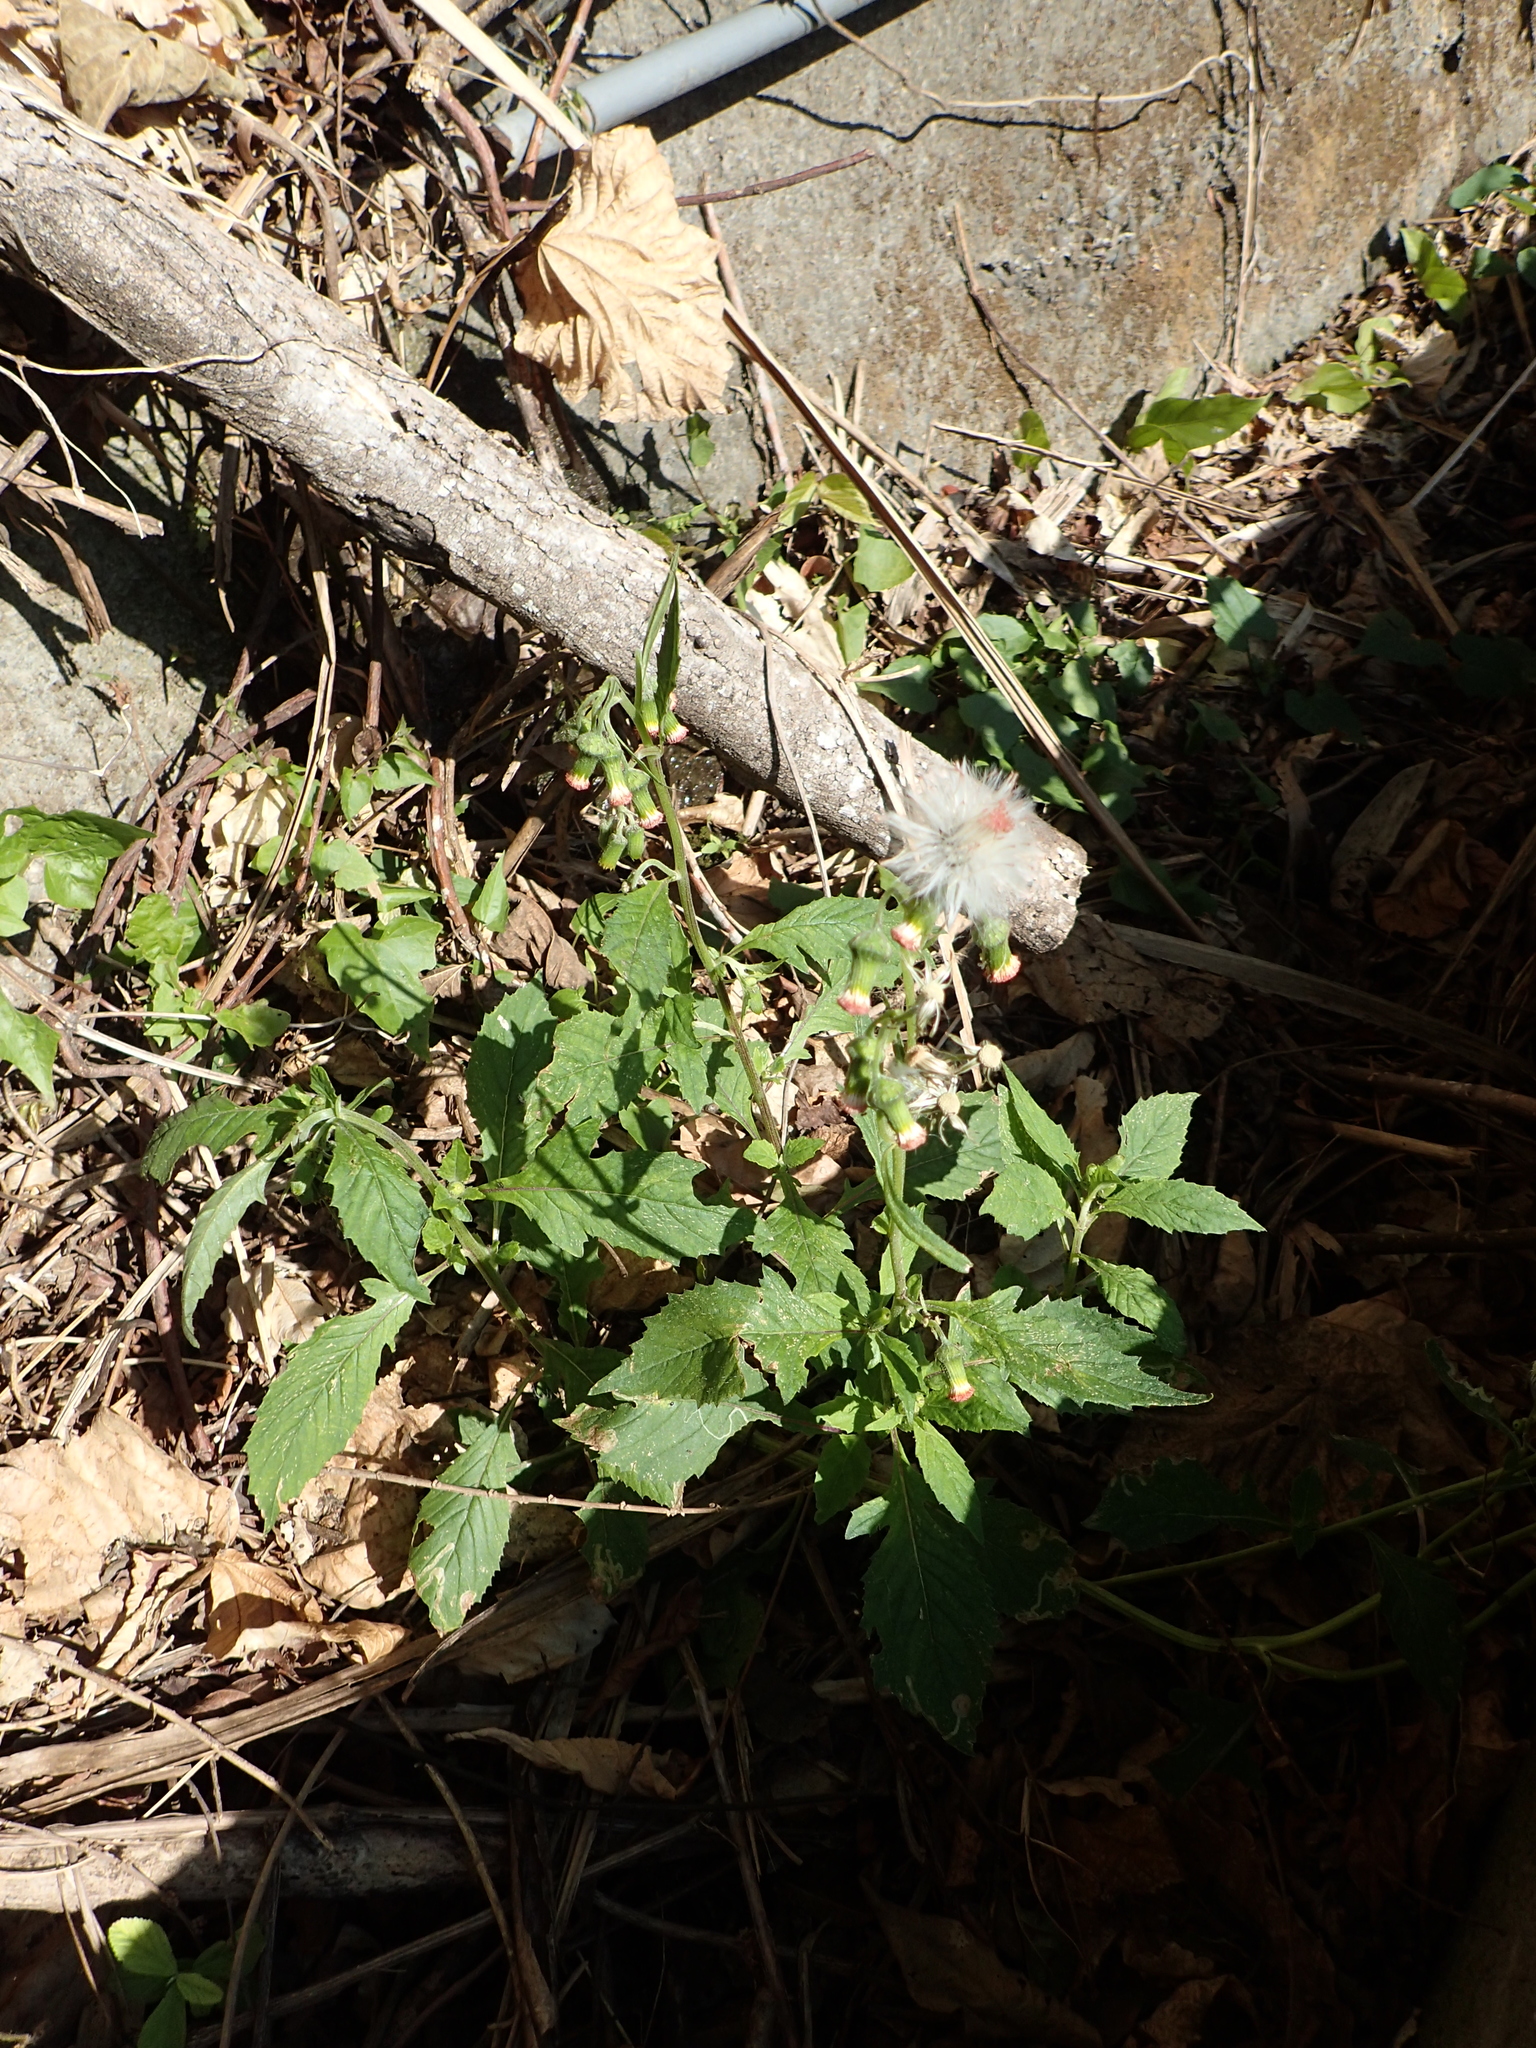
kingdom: Plantae
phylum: Tracheophyta
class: Magnoliopsida
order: Asterales
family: Asteraceae
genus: Crassocephalum
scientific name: Crassocephalum crepidioides
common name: Redflower ragleaf
